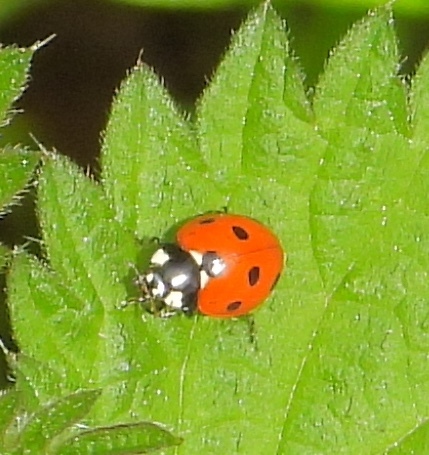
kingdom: Animalia
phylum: Arthropoda
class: Insecta
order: Coleoptera
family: Coccinellidae
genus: Coccinella
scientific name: Coccinella septempunctata
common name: Sevenspotted lady beetle
